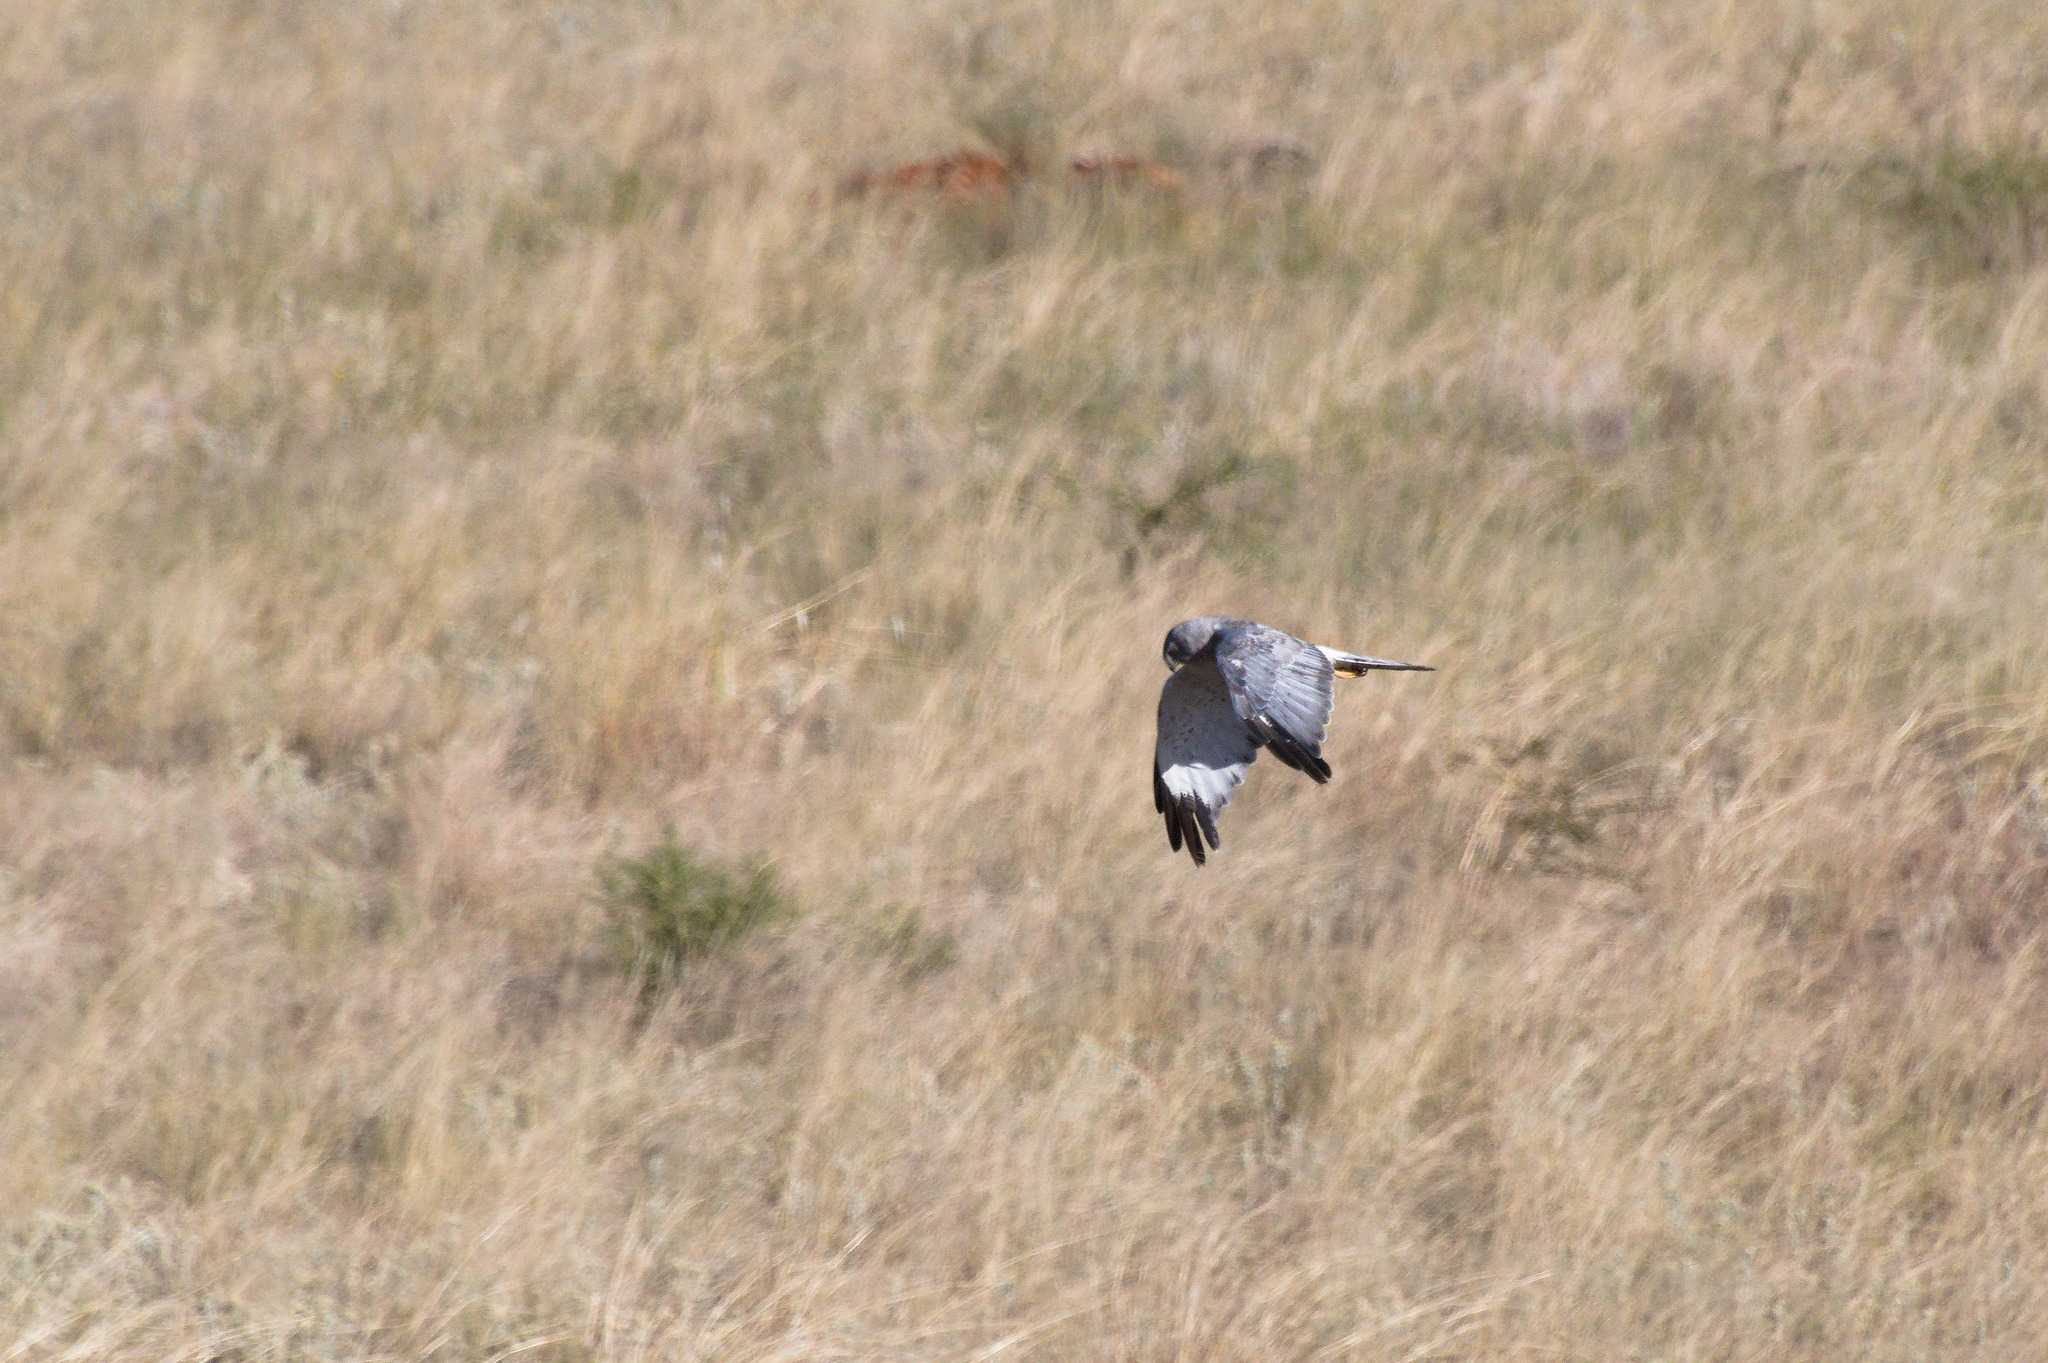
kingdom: Animalia
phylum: Chordata
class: Aves
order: Accipitriformes
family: Accipitridae
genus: Circus
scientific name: Circus cyaneus
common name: Hen harrier
